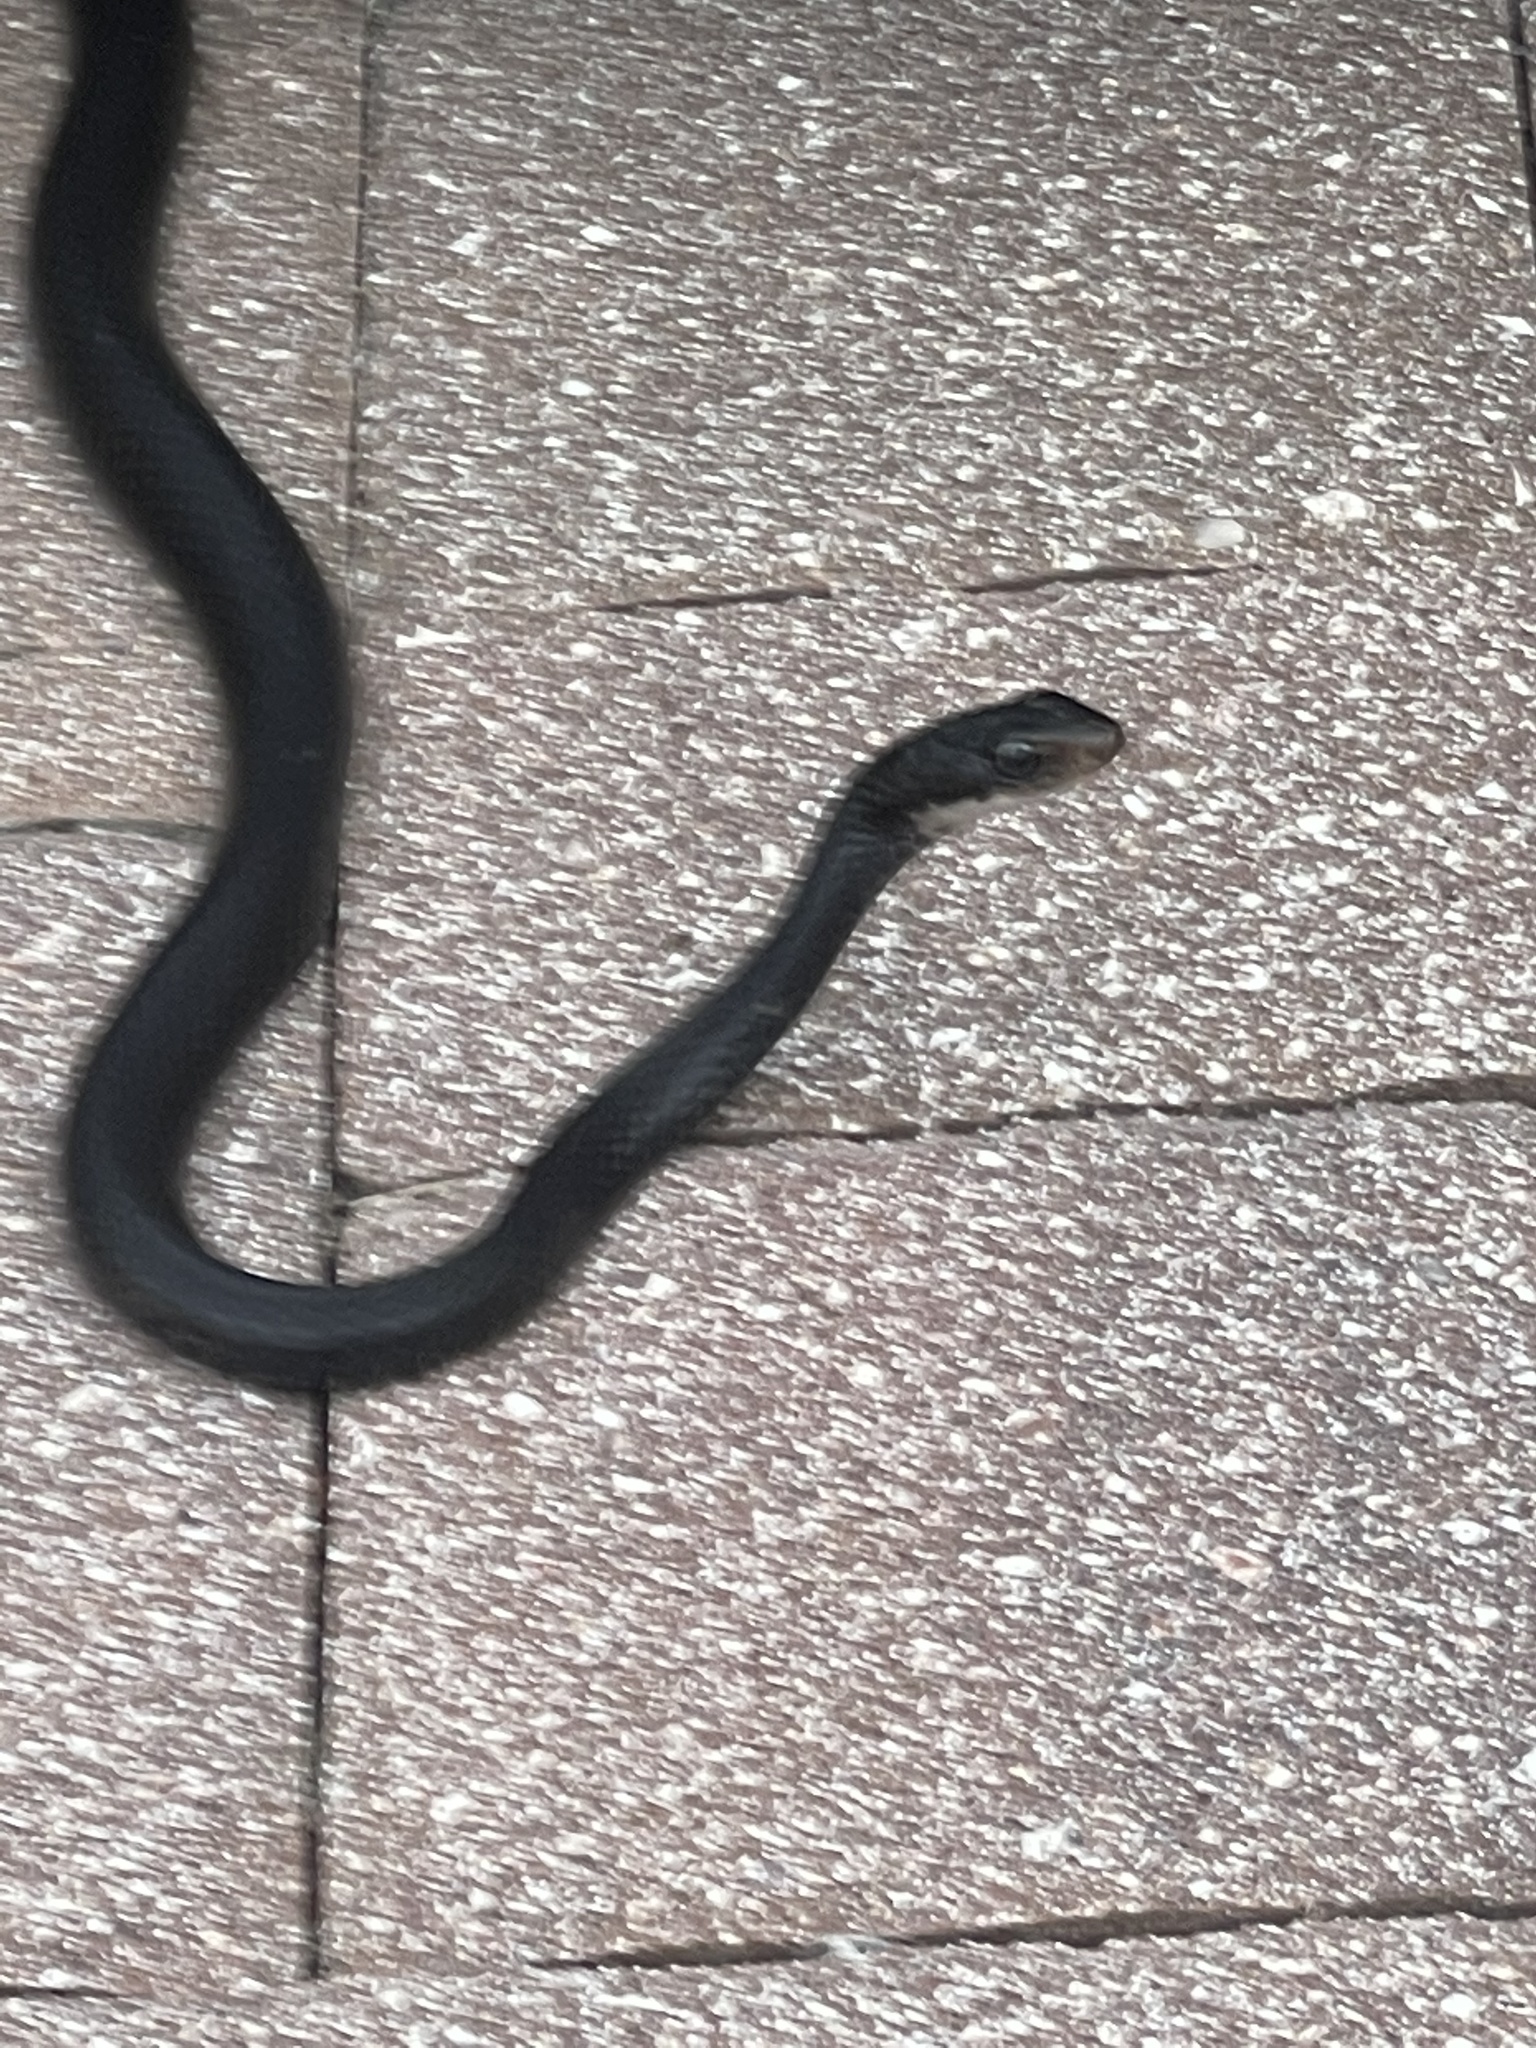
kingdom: Animalia
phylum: Chordata
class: Squamata
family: Colubridae
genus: Coluber
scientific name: Coluber constrictor
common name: Eastern racer
